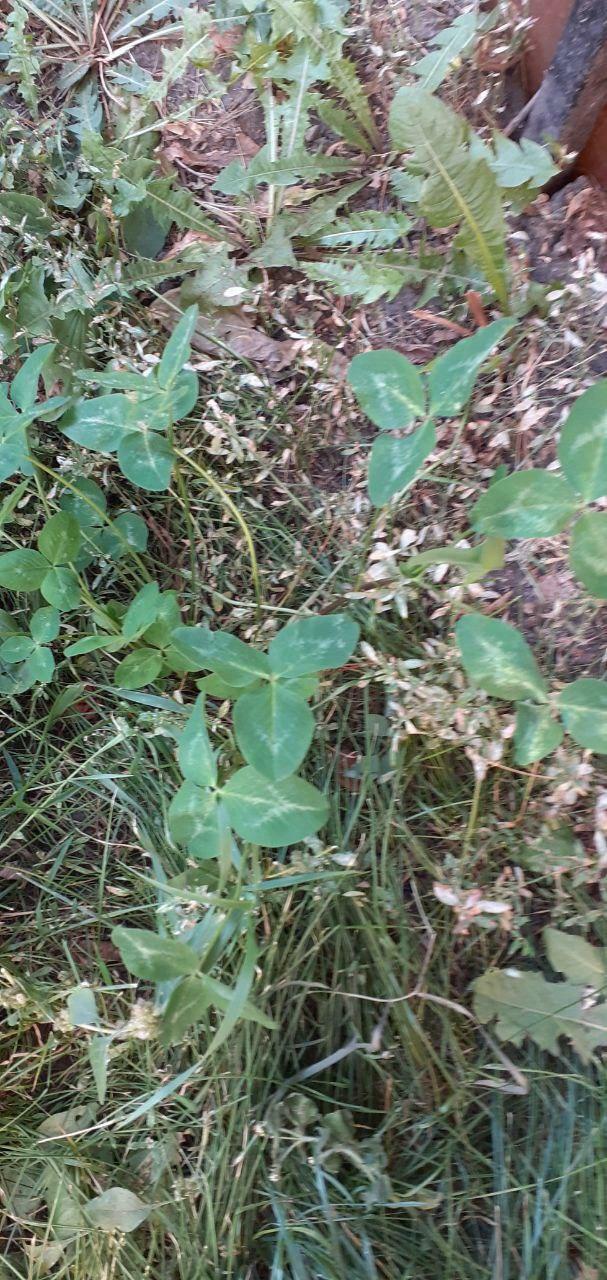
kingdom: Plantae
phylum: Tracheophyta
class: Magnoliopsida
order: Fabales
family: Fabaceae
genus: Trifolium
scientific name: Trifolium pratense
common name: Red clover
